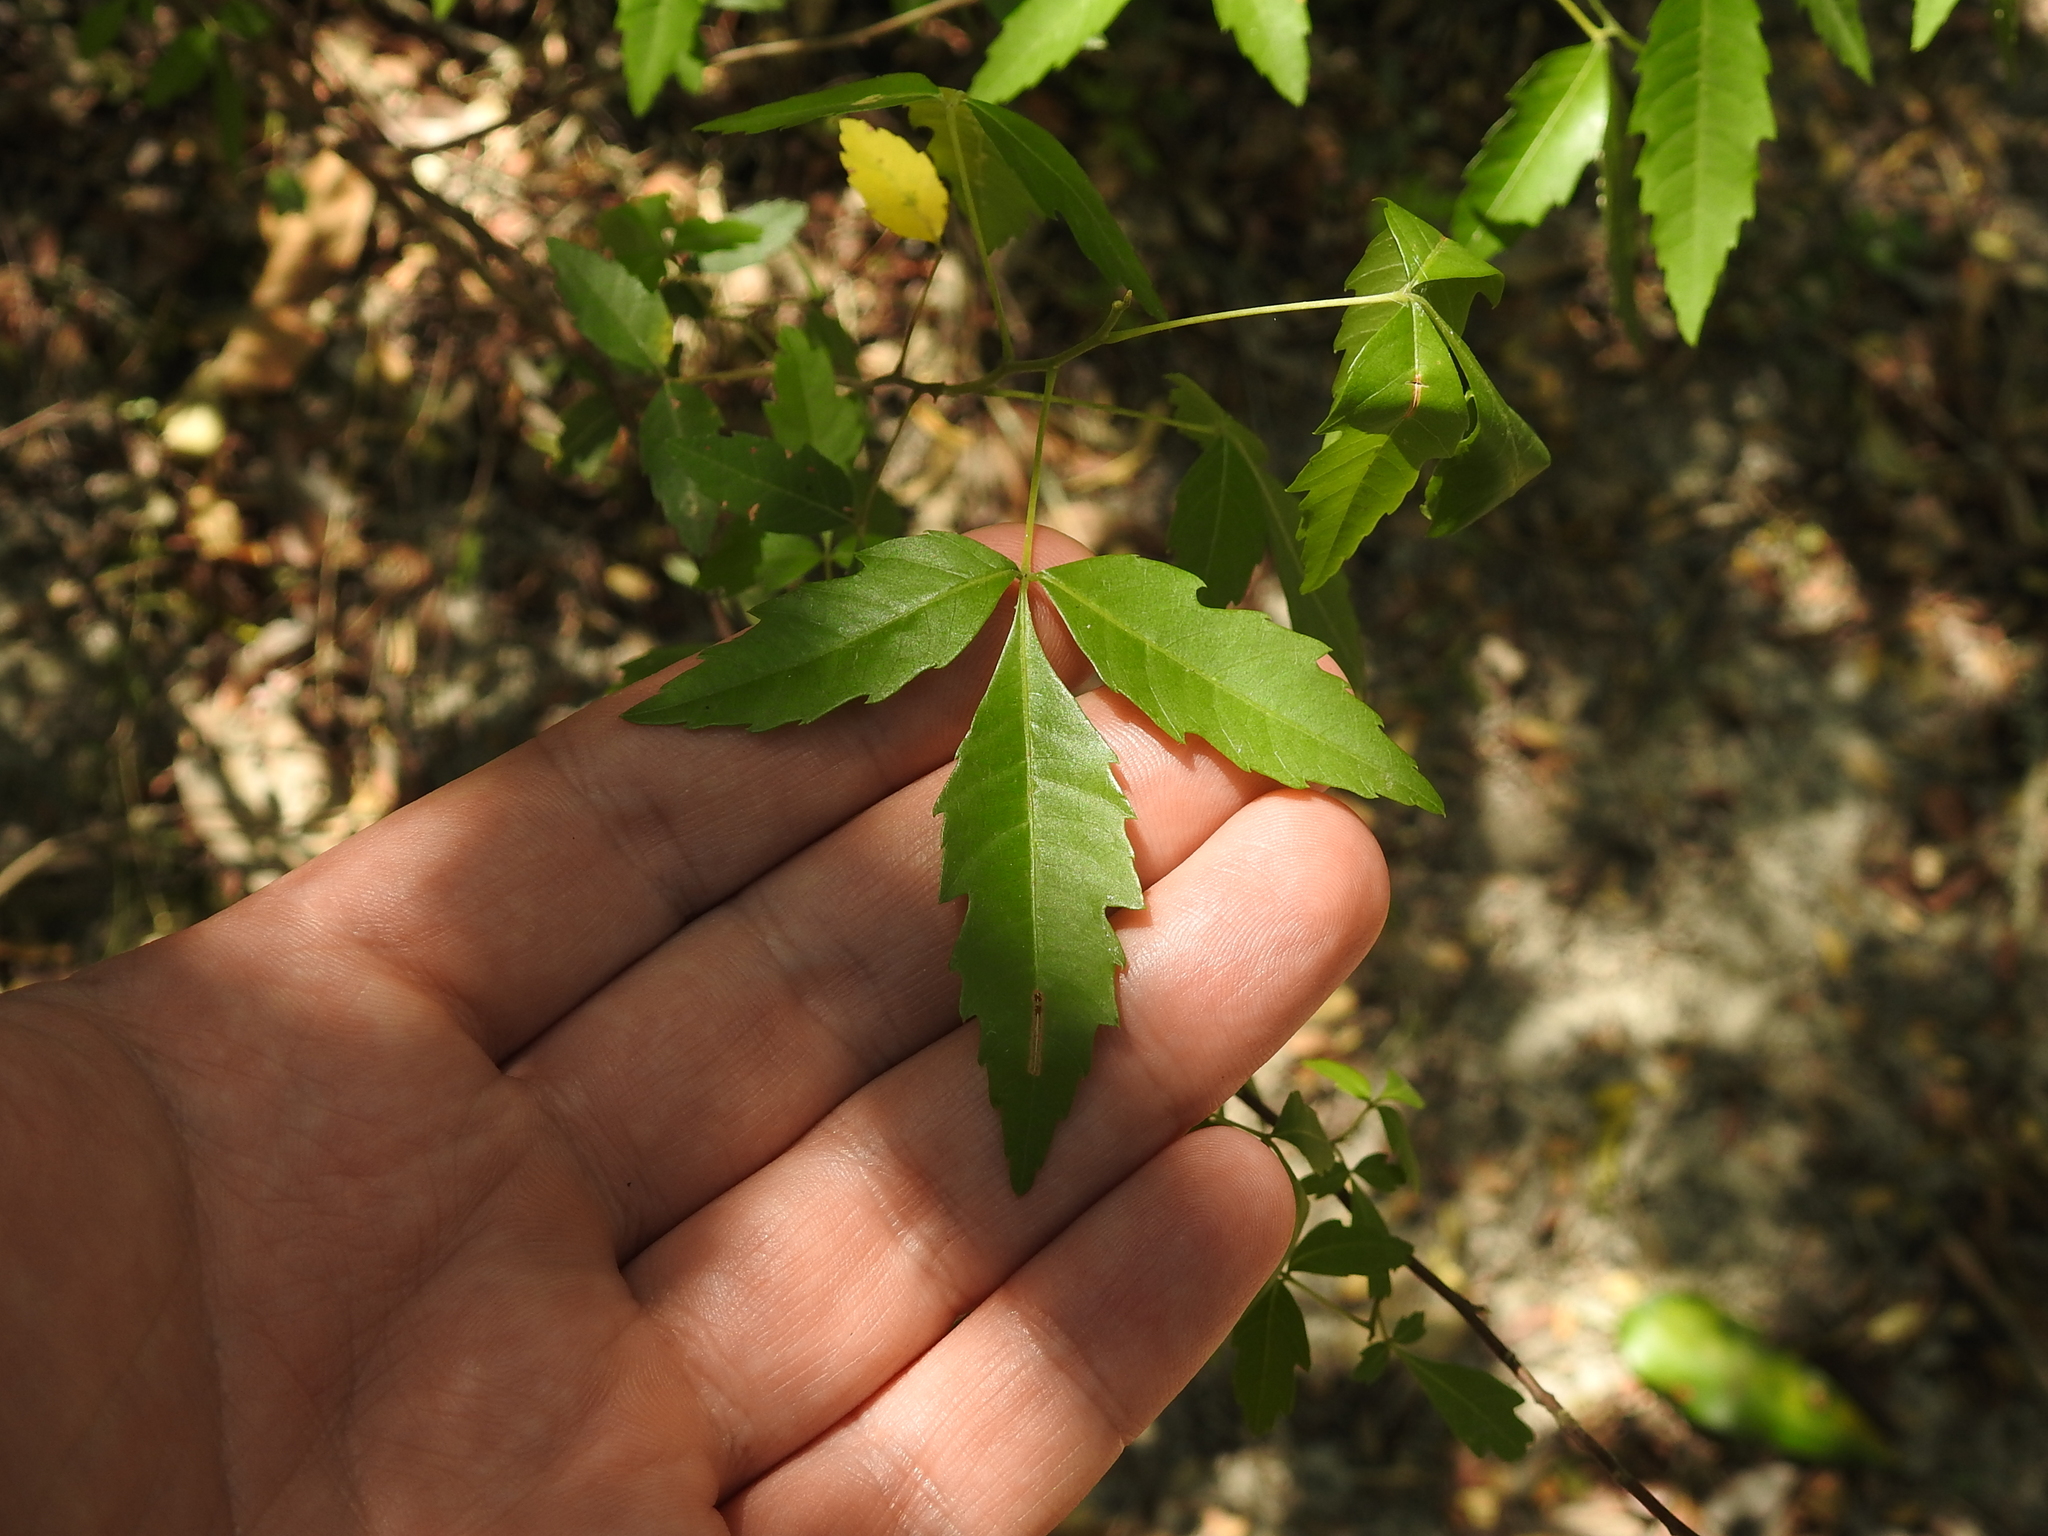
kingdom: Plantae
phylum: Tracheophyta
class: Magnoliopsida
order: Sapindales
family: Sapindaceae
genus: Allophylus
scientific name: Allophylus edulis
